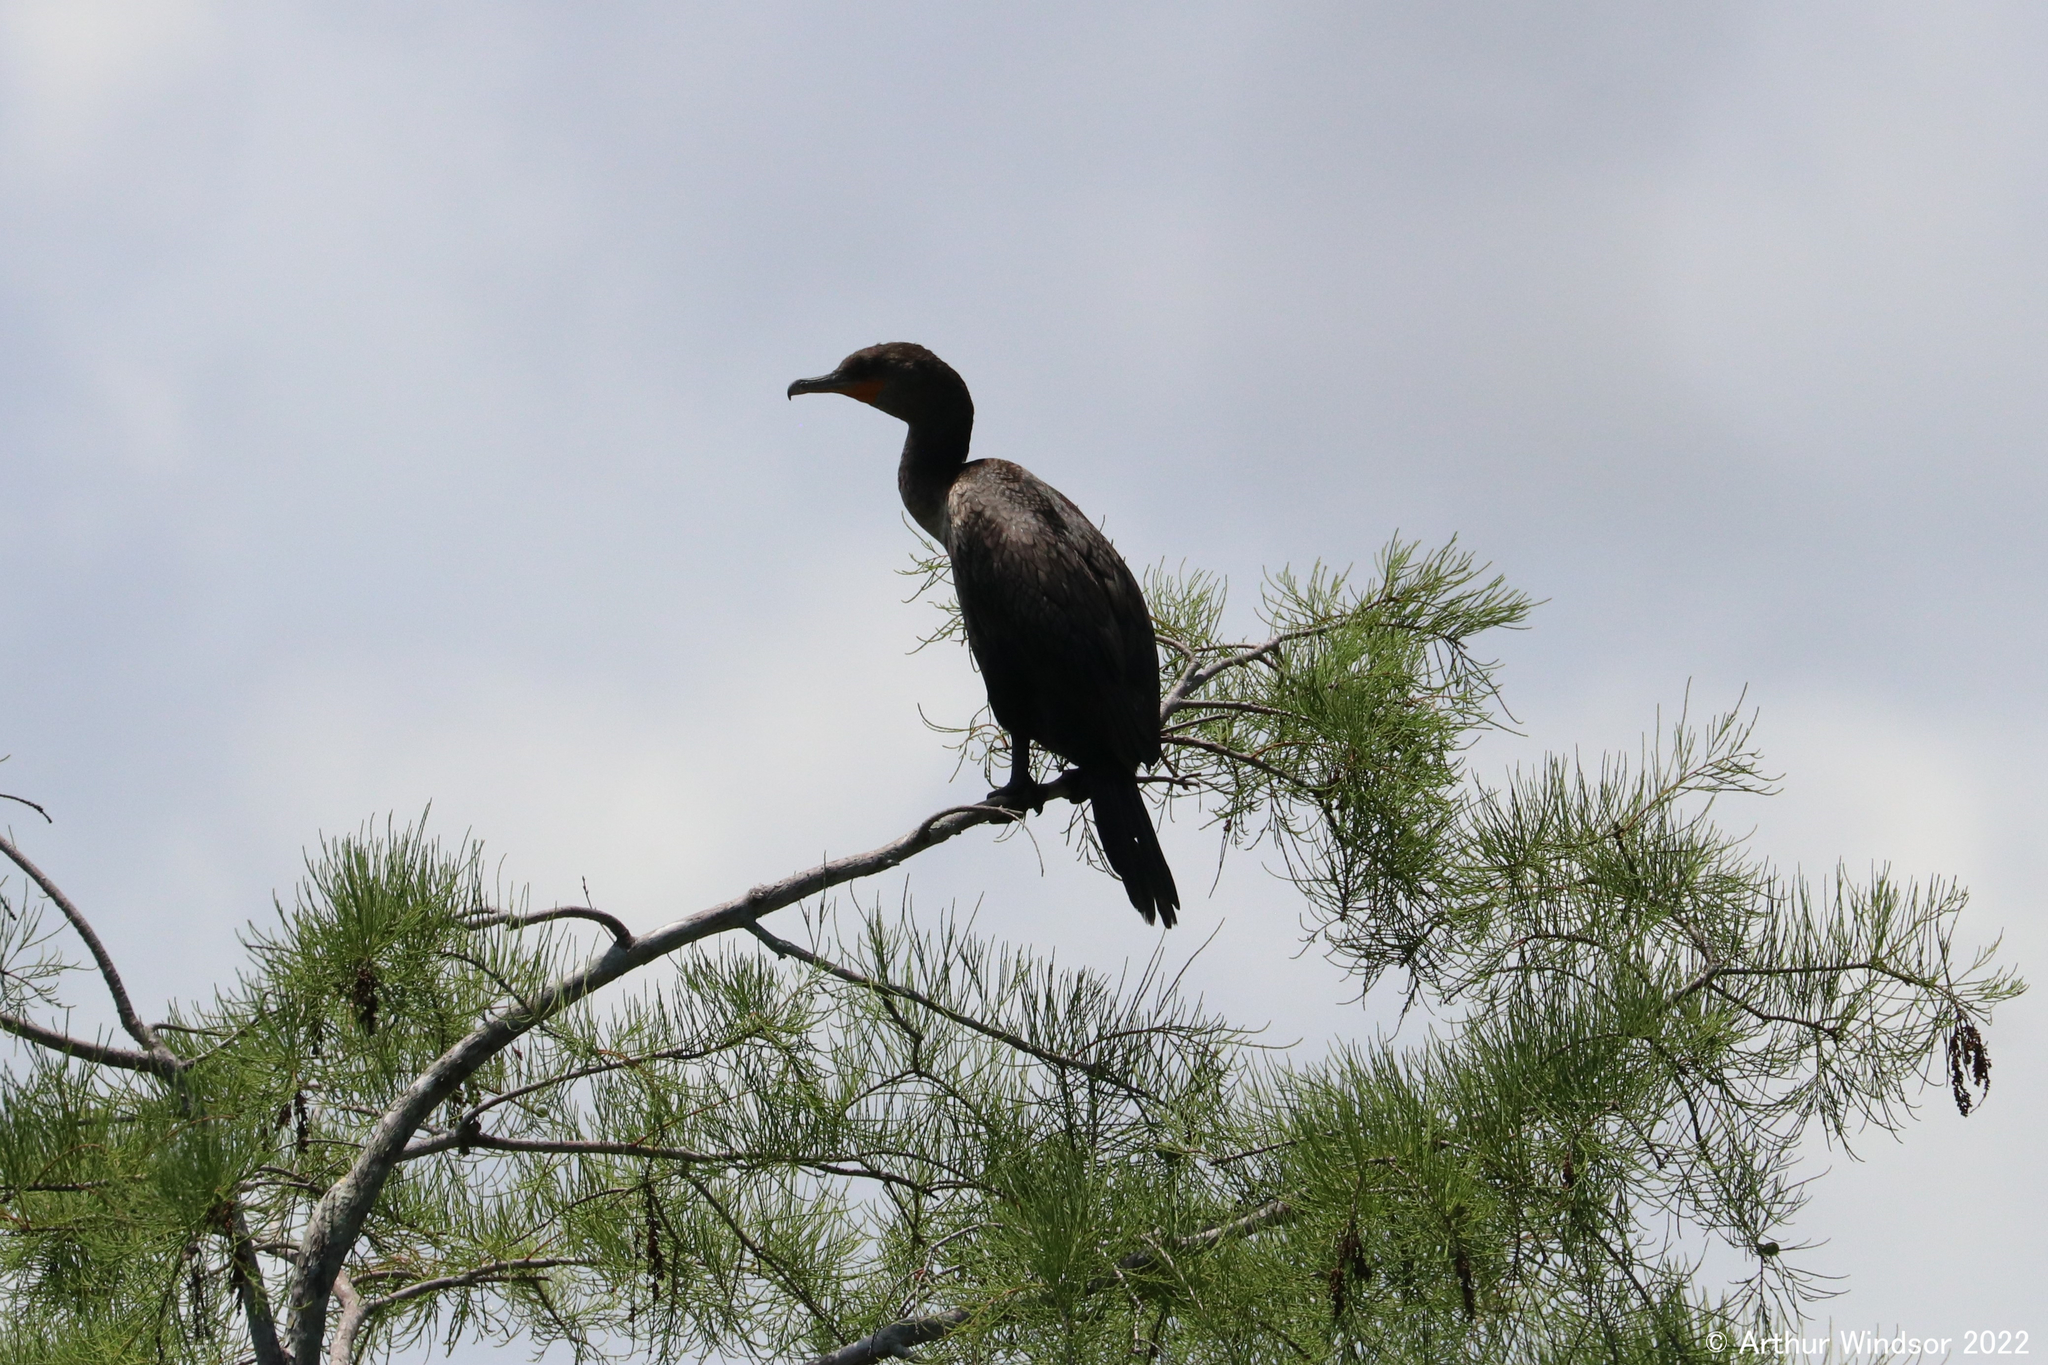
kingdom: Animalia
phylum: Chordata
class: Aves
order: Suliformes
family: Phalacrocoracidae
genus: Phalacrocorax
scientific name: Phalacrocorax auritus
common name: Double-crested cormorant
